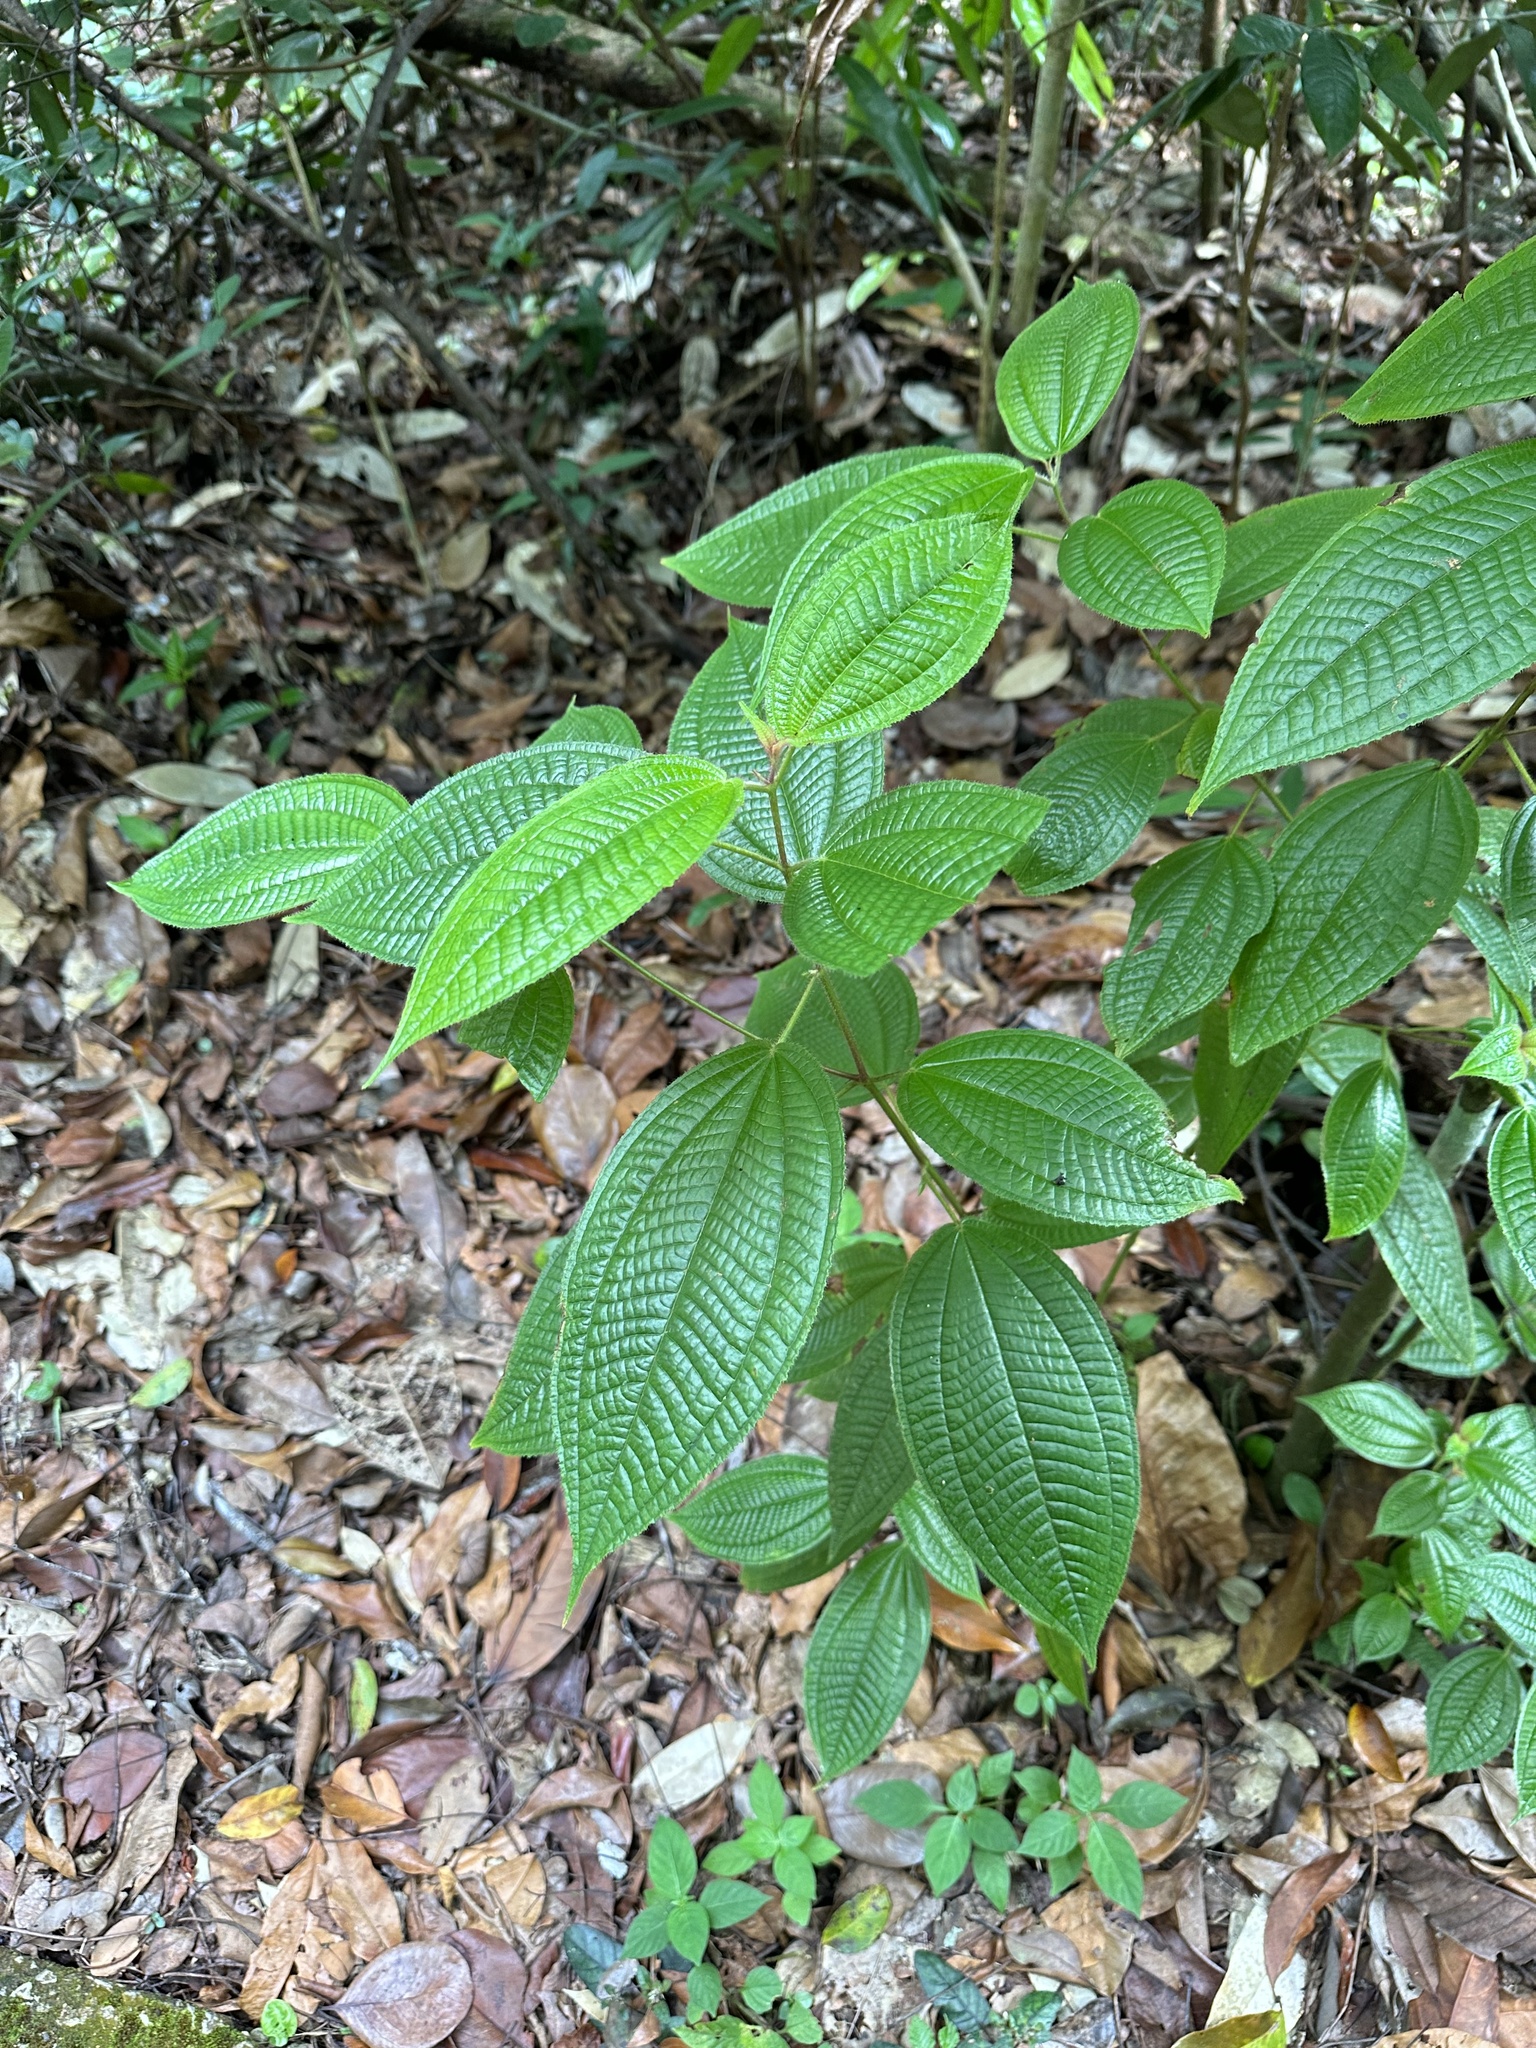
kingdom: Plantae
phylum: Tracheophyta
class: Magnoliopsida
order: Myrtales
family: Melastomataceae
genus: Miconia
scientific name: Miconia crenata
